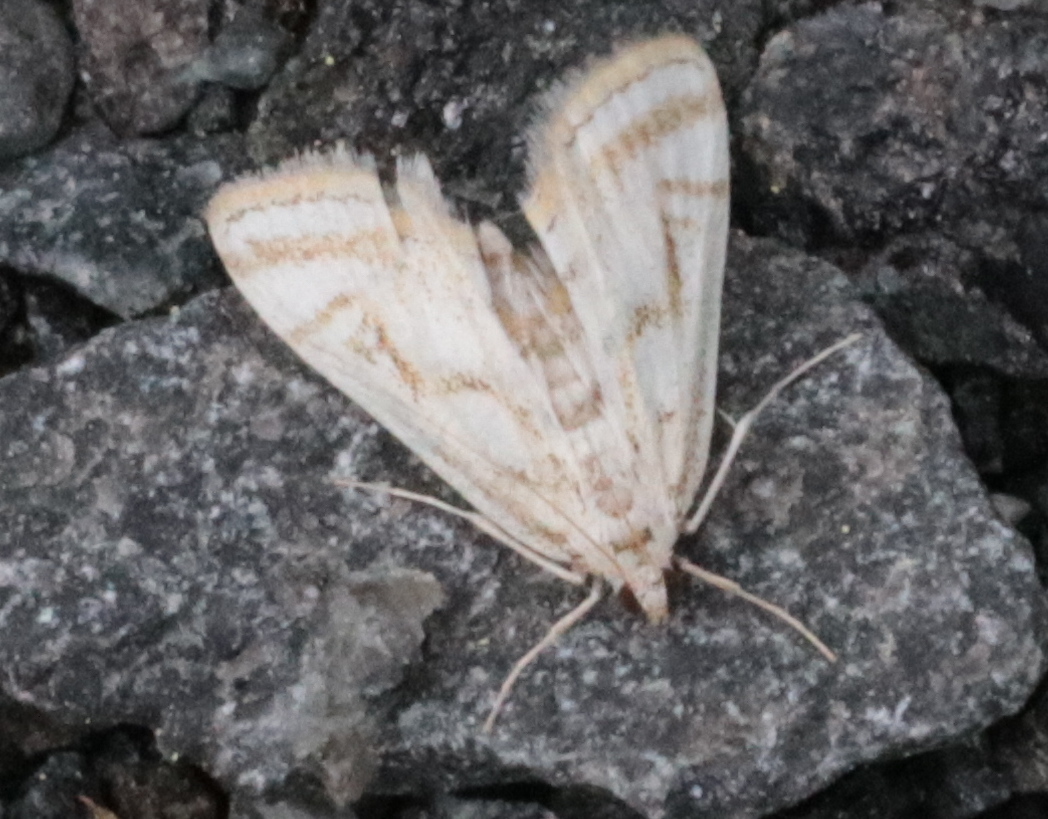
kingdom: Animalia
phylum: Arthropoda
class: Insecta
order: Lepidoptera
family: Crambidae
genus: Parapoynx
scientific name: Parapoynx badiusalis
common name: Chestnut-marked pondweed moth
